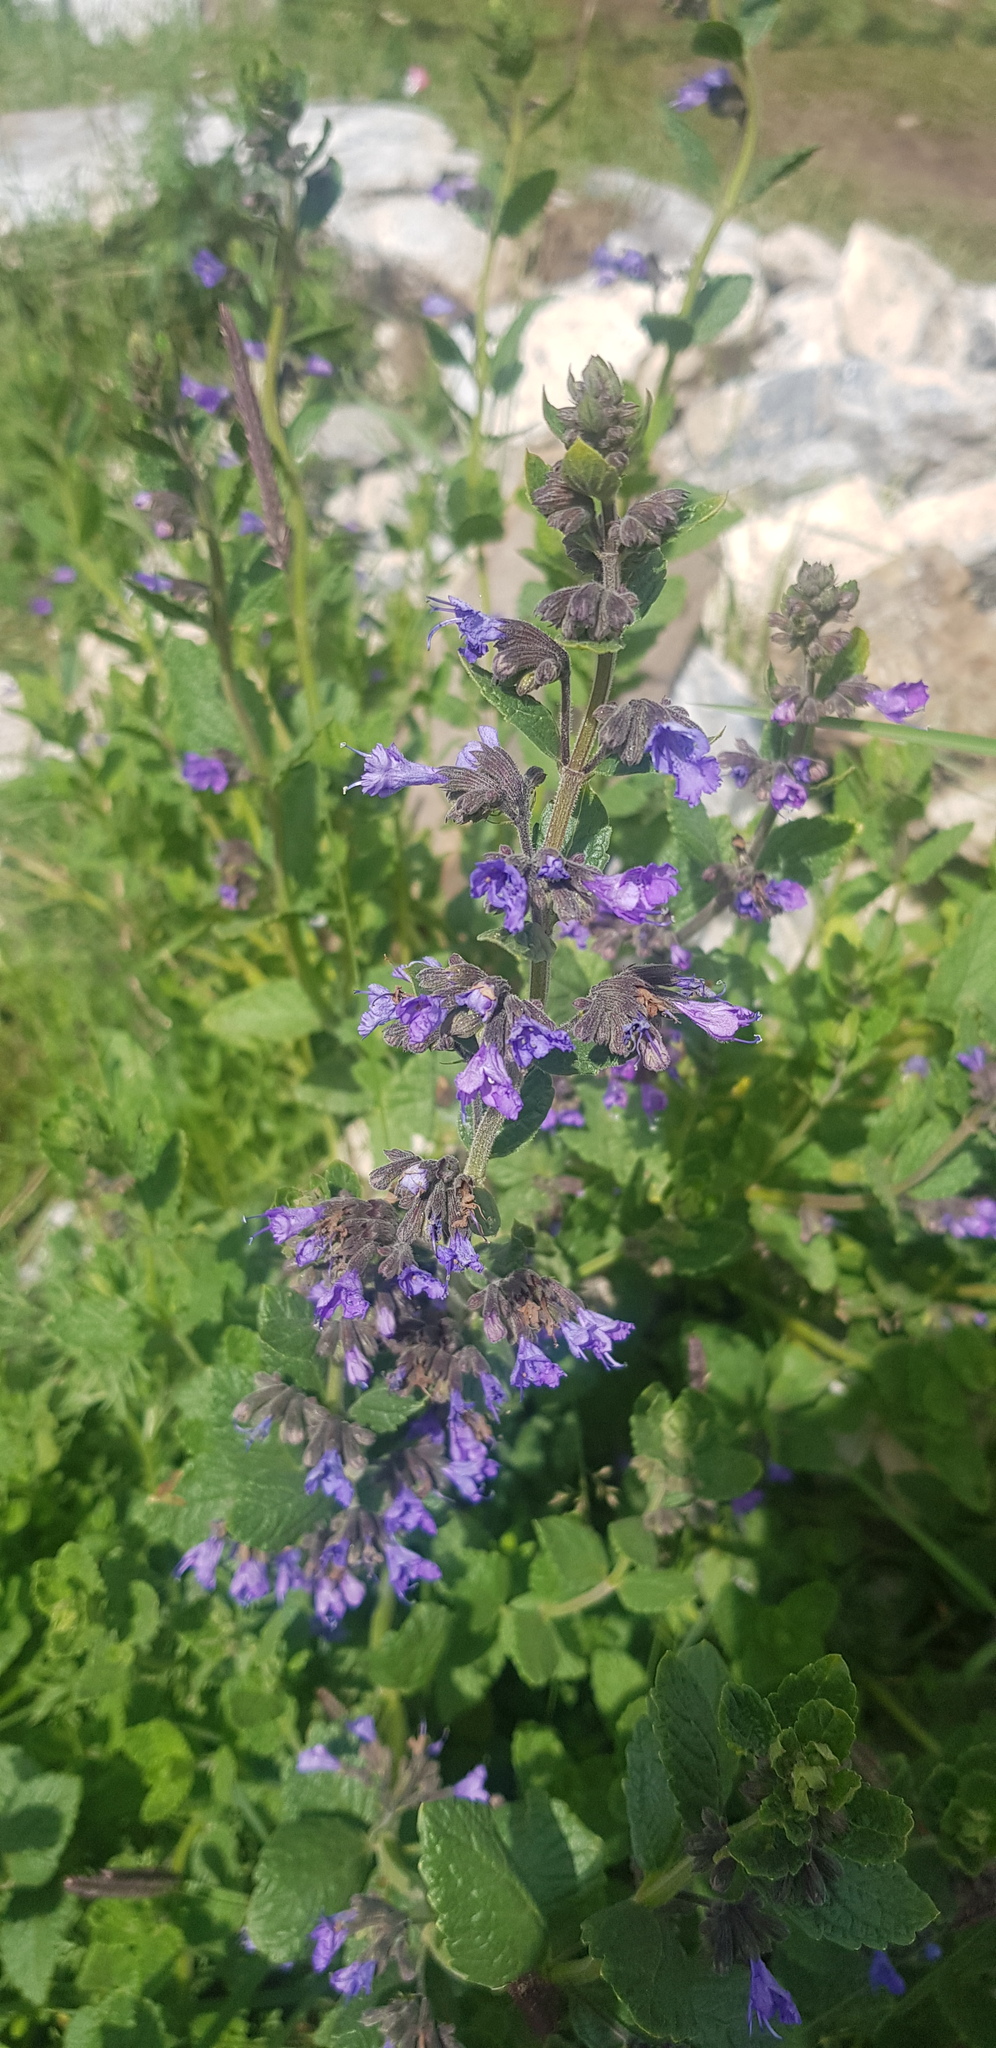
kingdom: Plantae
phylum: Tracheophyta
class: Magnoliopsida
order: Lamiales
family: Lamiaceae
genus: Nepeta
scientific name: Nepeta lophanthus
